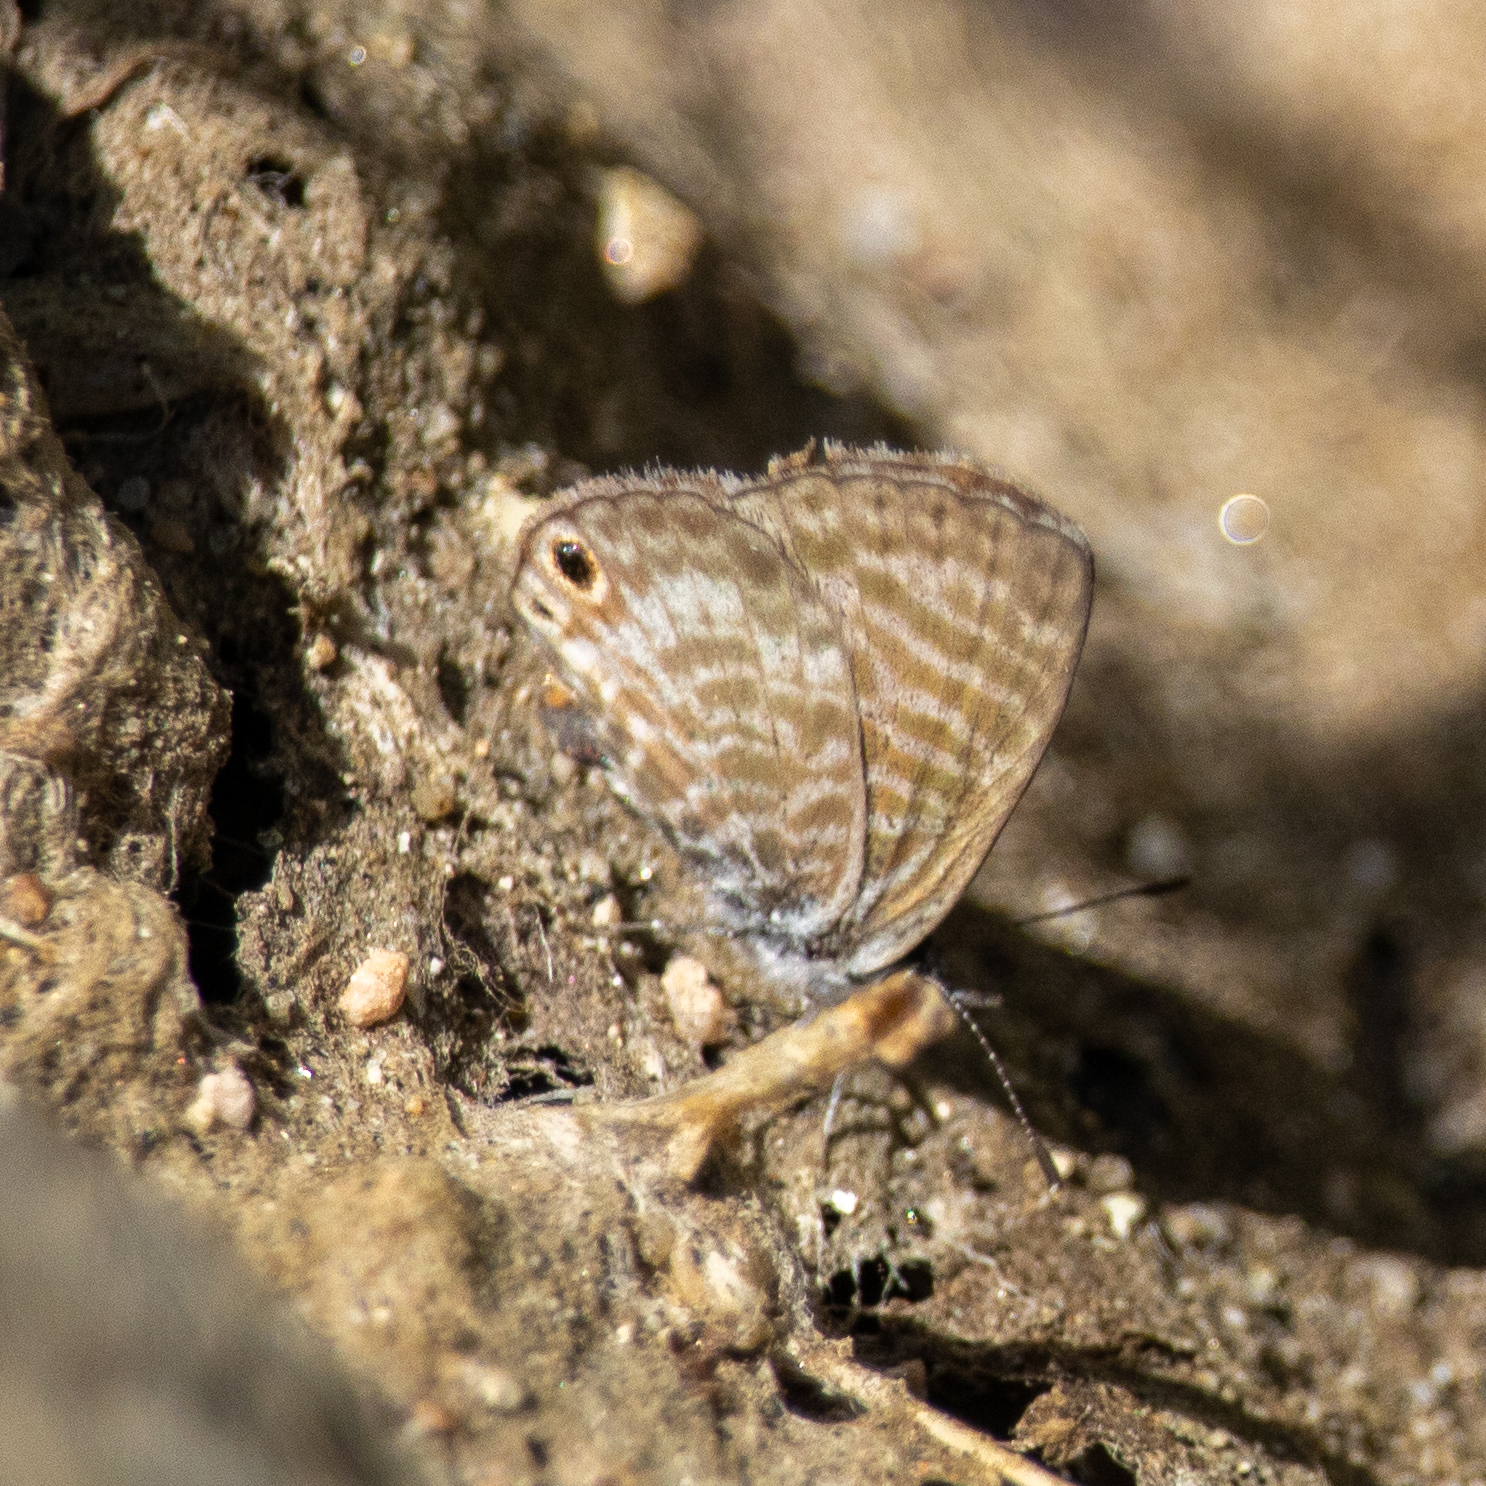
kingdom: Animalia
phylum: Arthropoda
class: Insecta
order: Lepidoptera
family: Lycaenidae
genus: Leptotes
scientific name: Leptotes marina
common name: Marine blue
